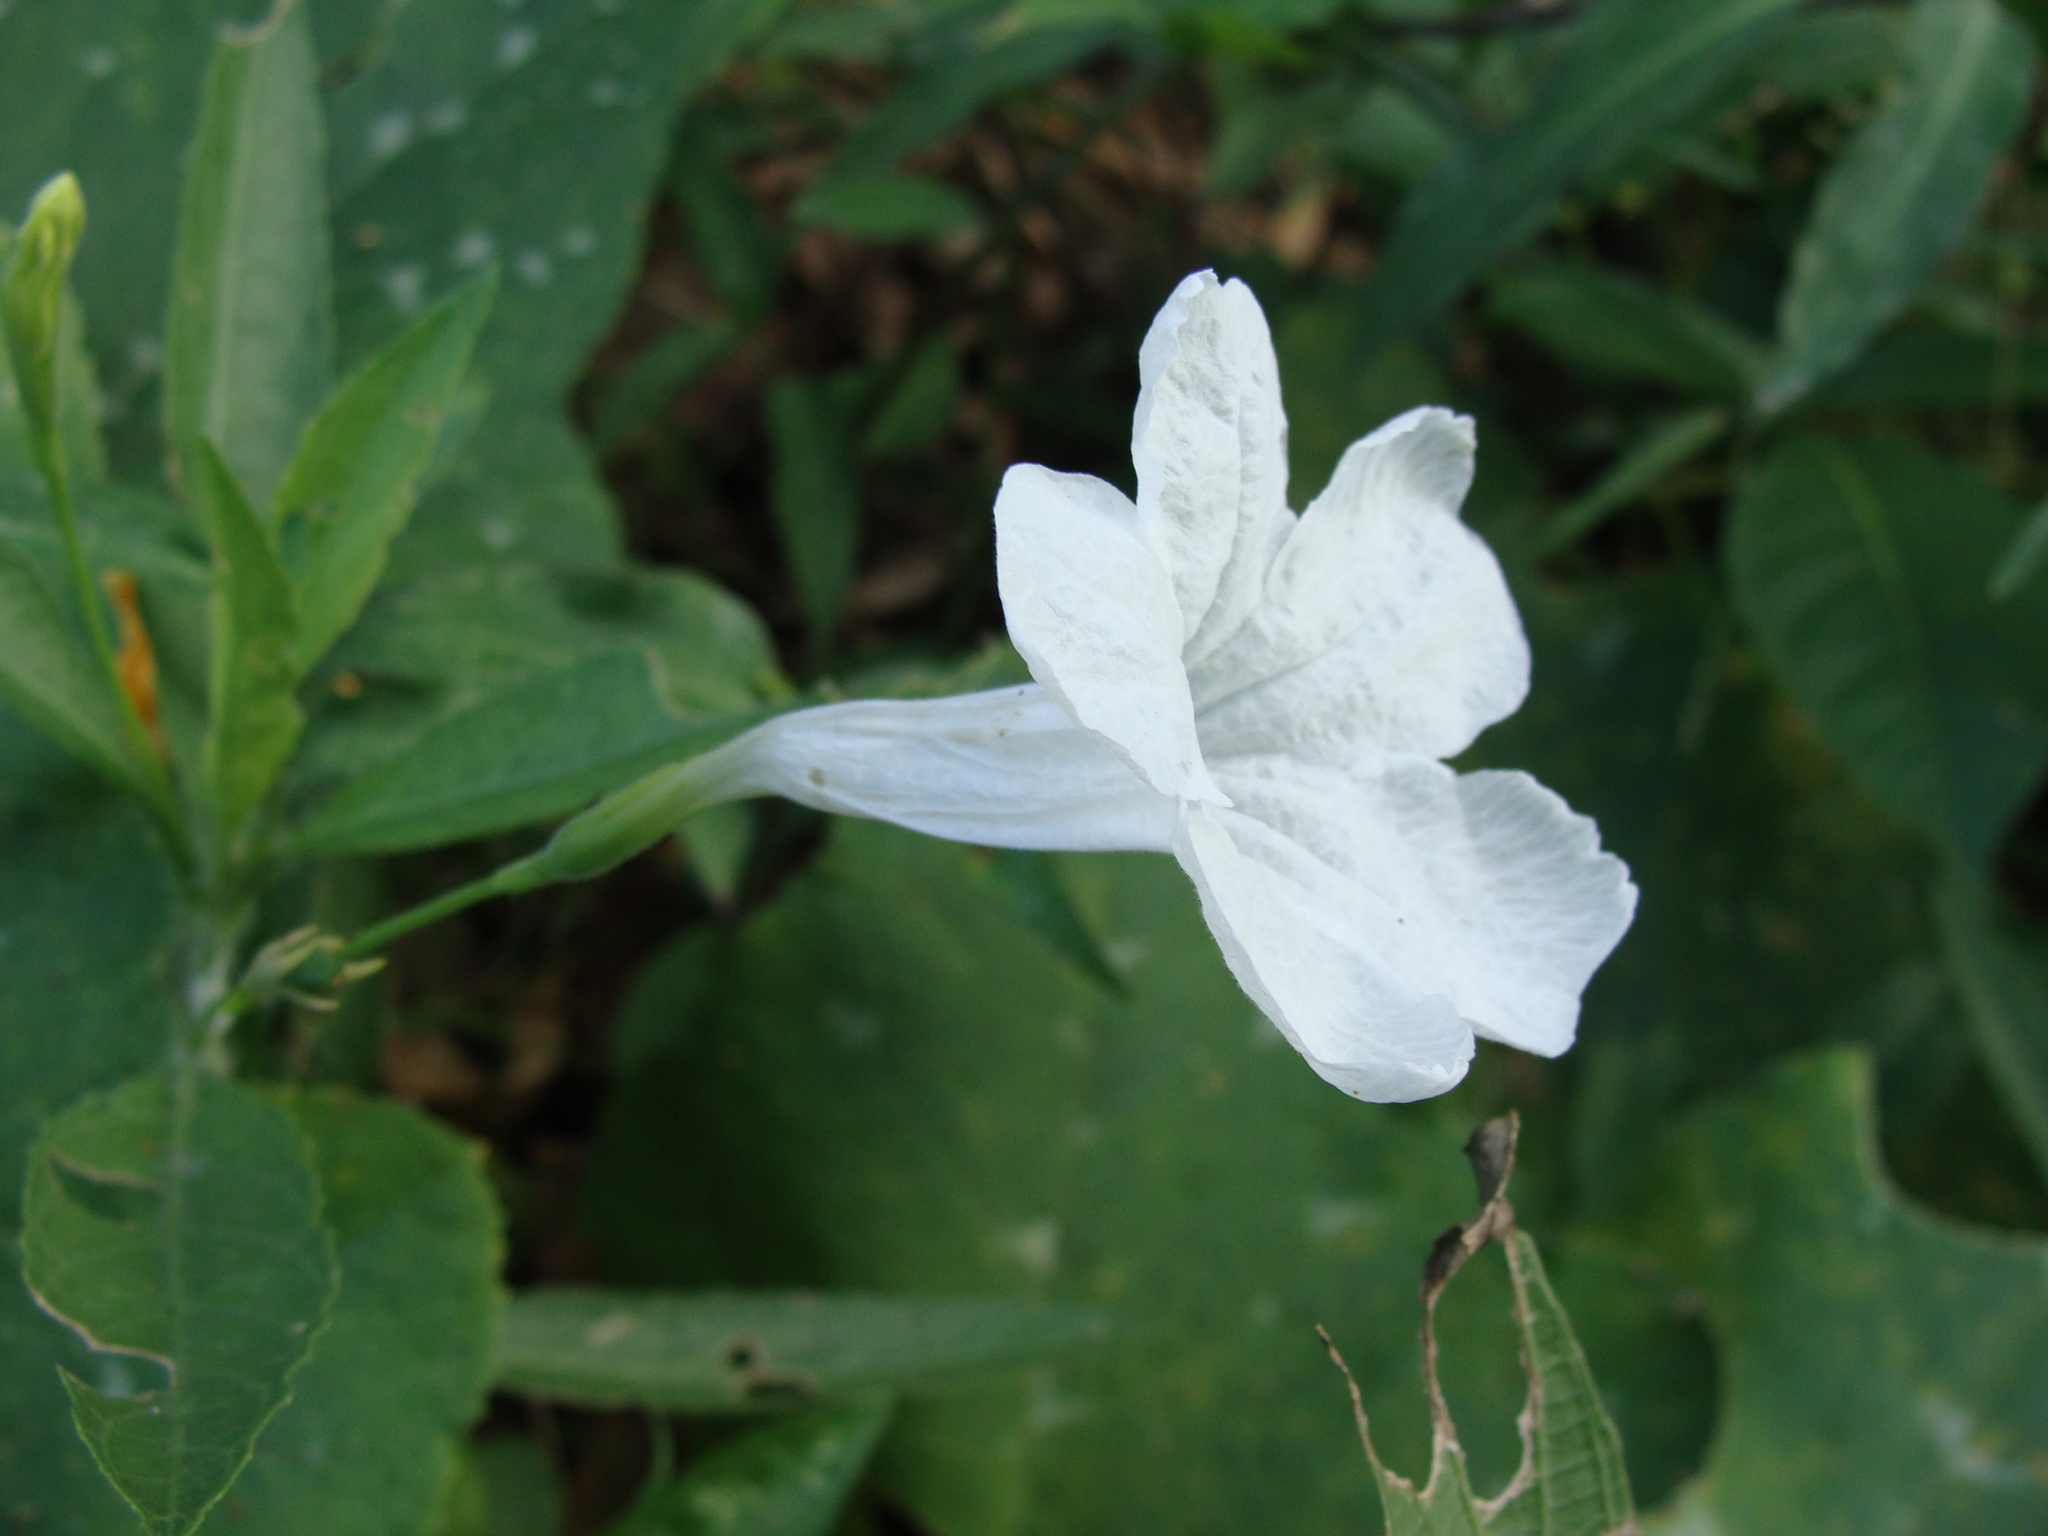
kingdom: Plantae
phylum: Tracheophyta
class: Magnoliopsida
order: Lamiales
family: Acanthaceae
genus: Ruellia
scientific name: Ruellia ciliatiflora
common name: Hairyflower wild petunia
